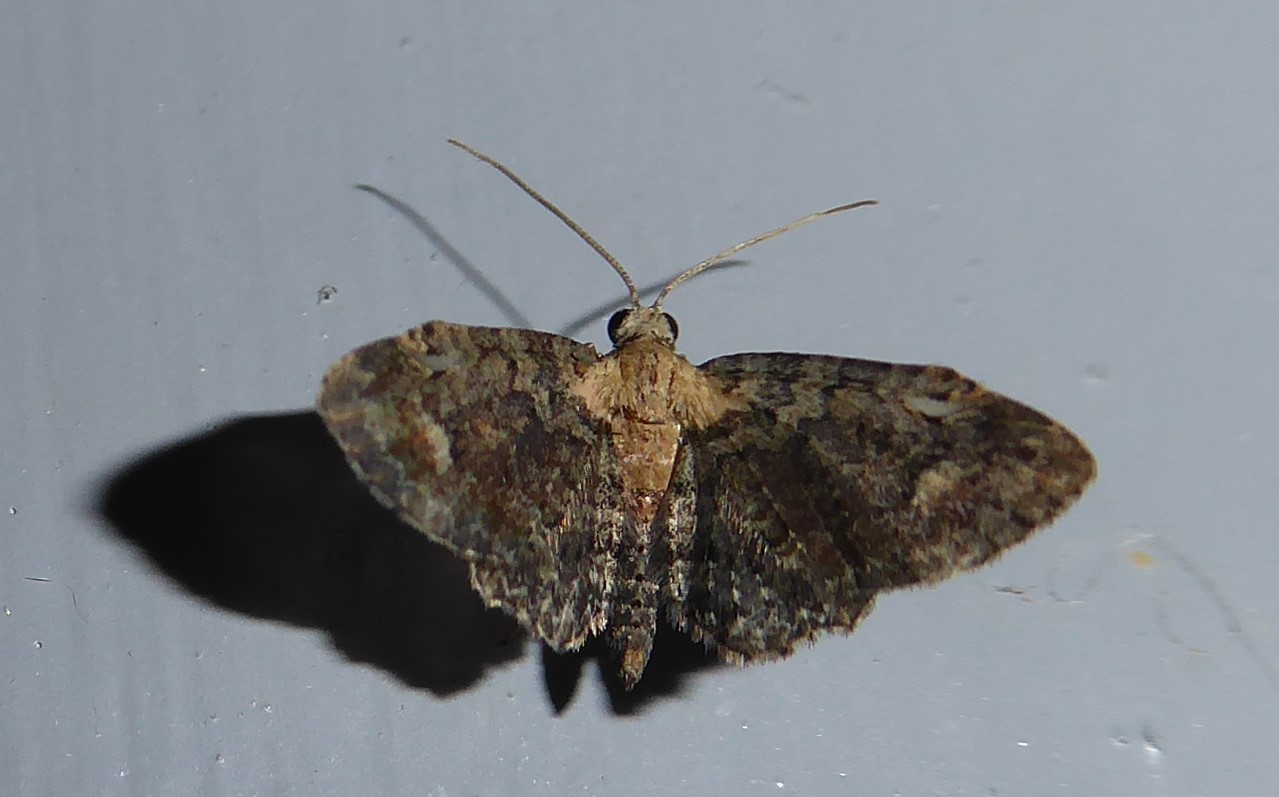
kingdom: Animalia
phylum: Arthropoda
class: Insecta
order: Lepidoptera
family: Geometridae
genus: Pasiphilodes
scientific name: Pasiphilodes testulata
